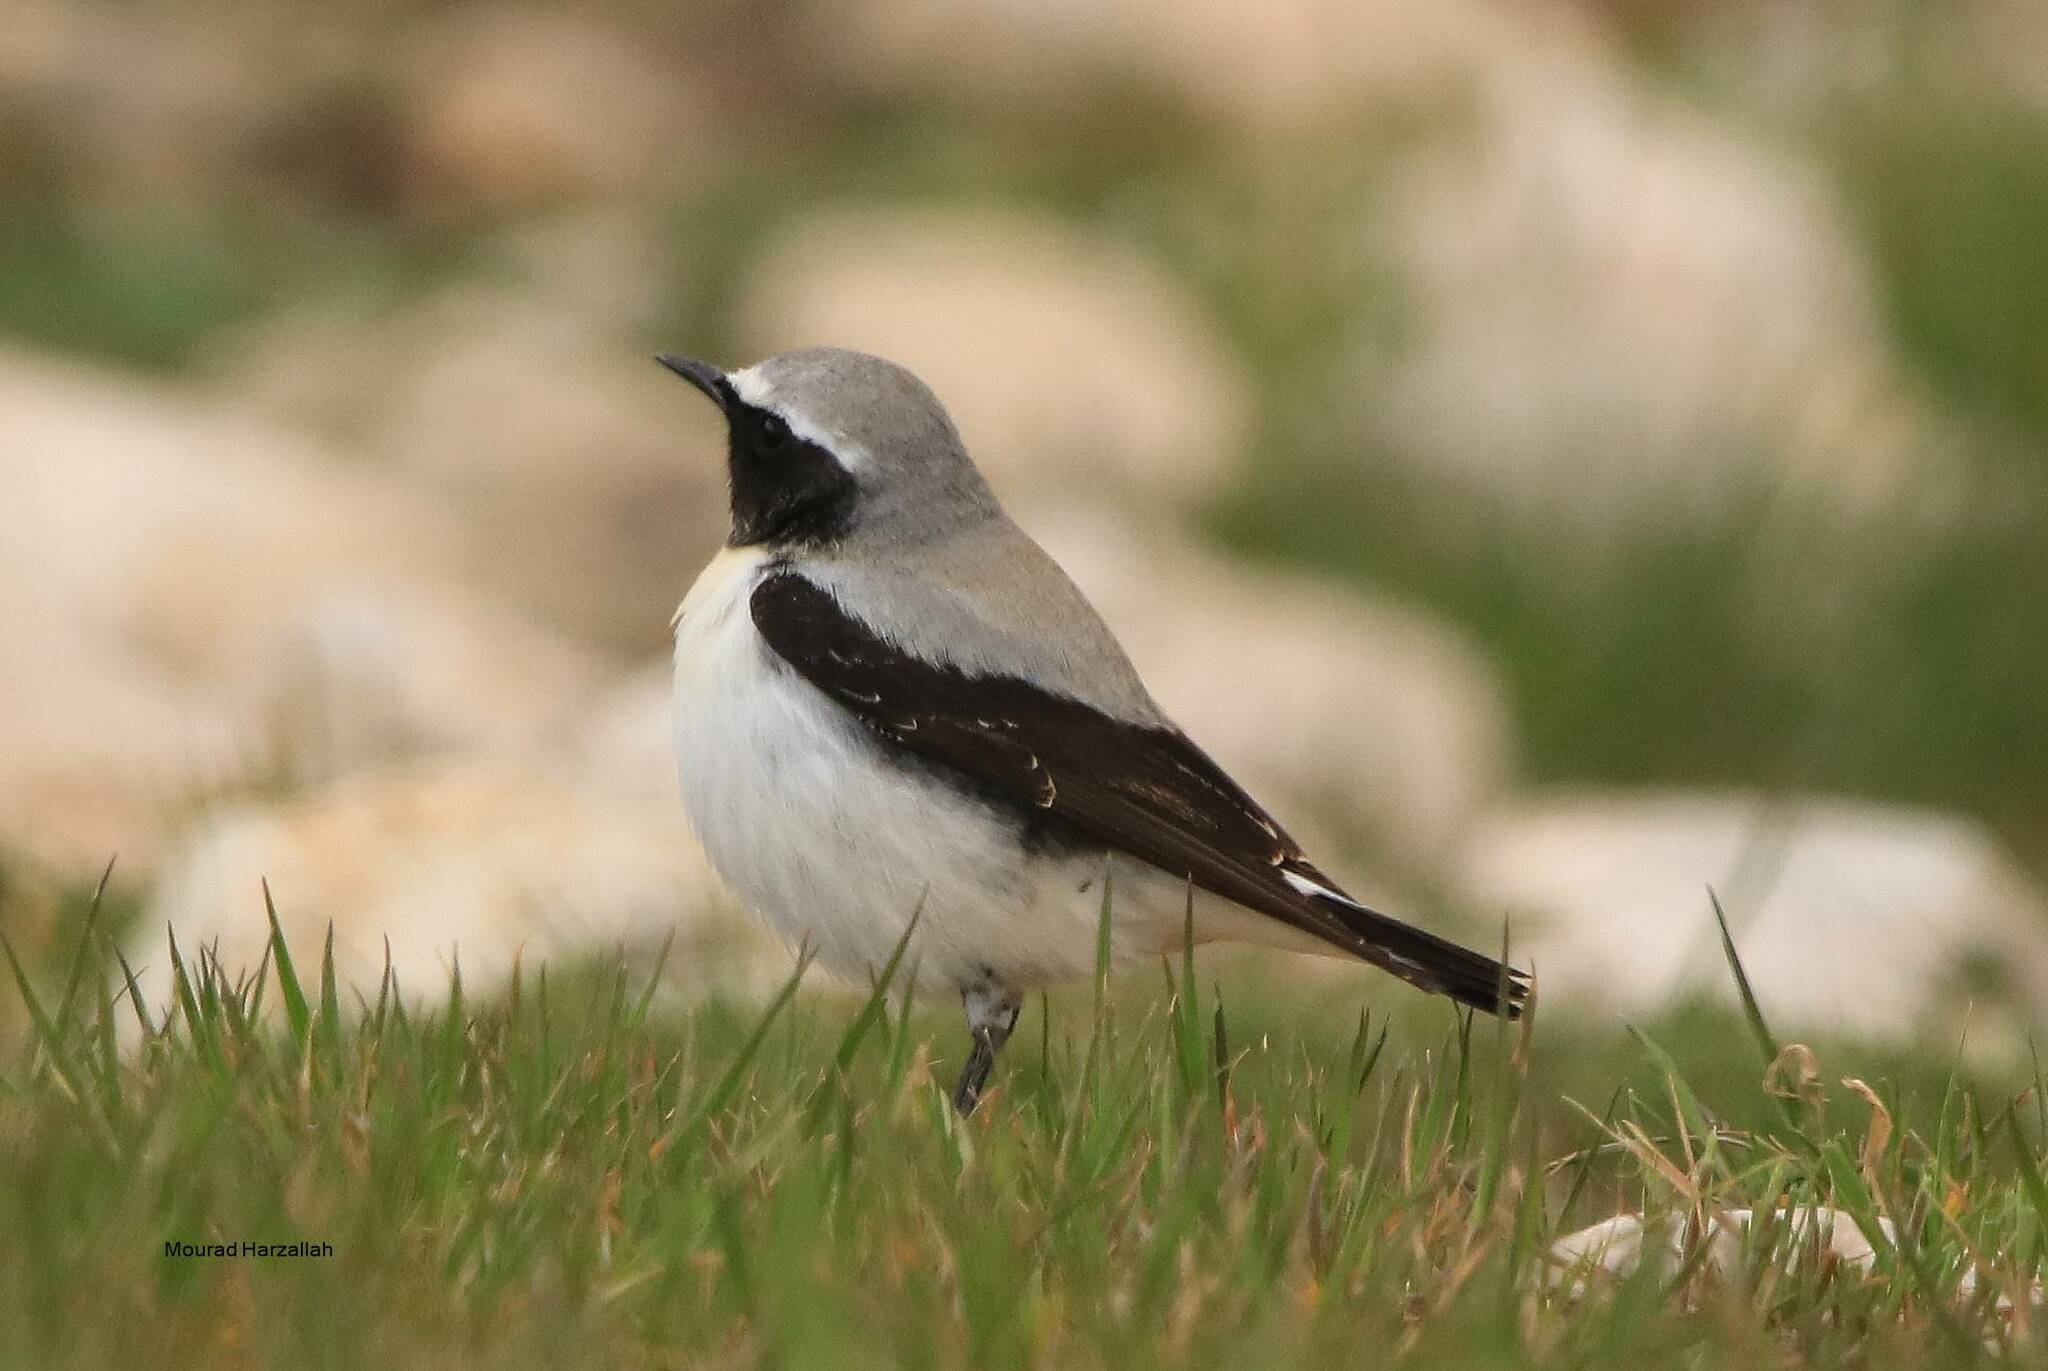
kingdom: Animalia
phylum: Chordata
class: Aves
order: Passeriformes
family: Muscicapidae
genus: Oenanthe
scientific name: Oenanthe oenanthe
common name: Northern wheatear
